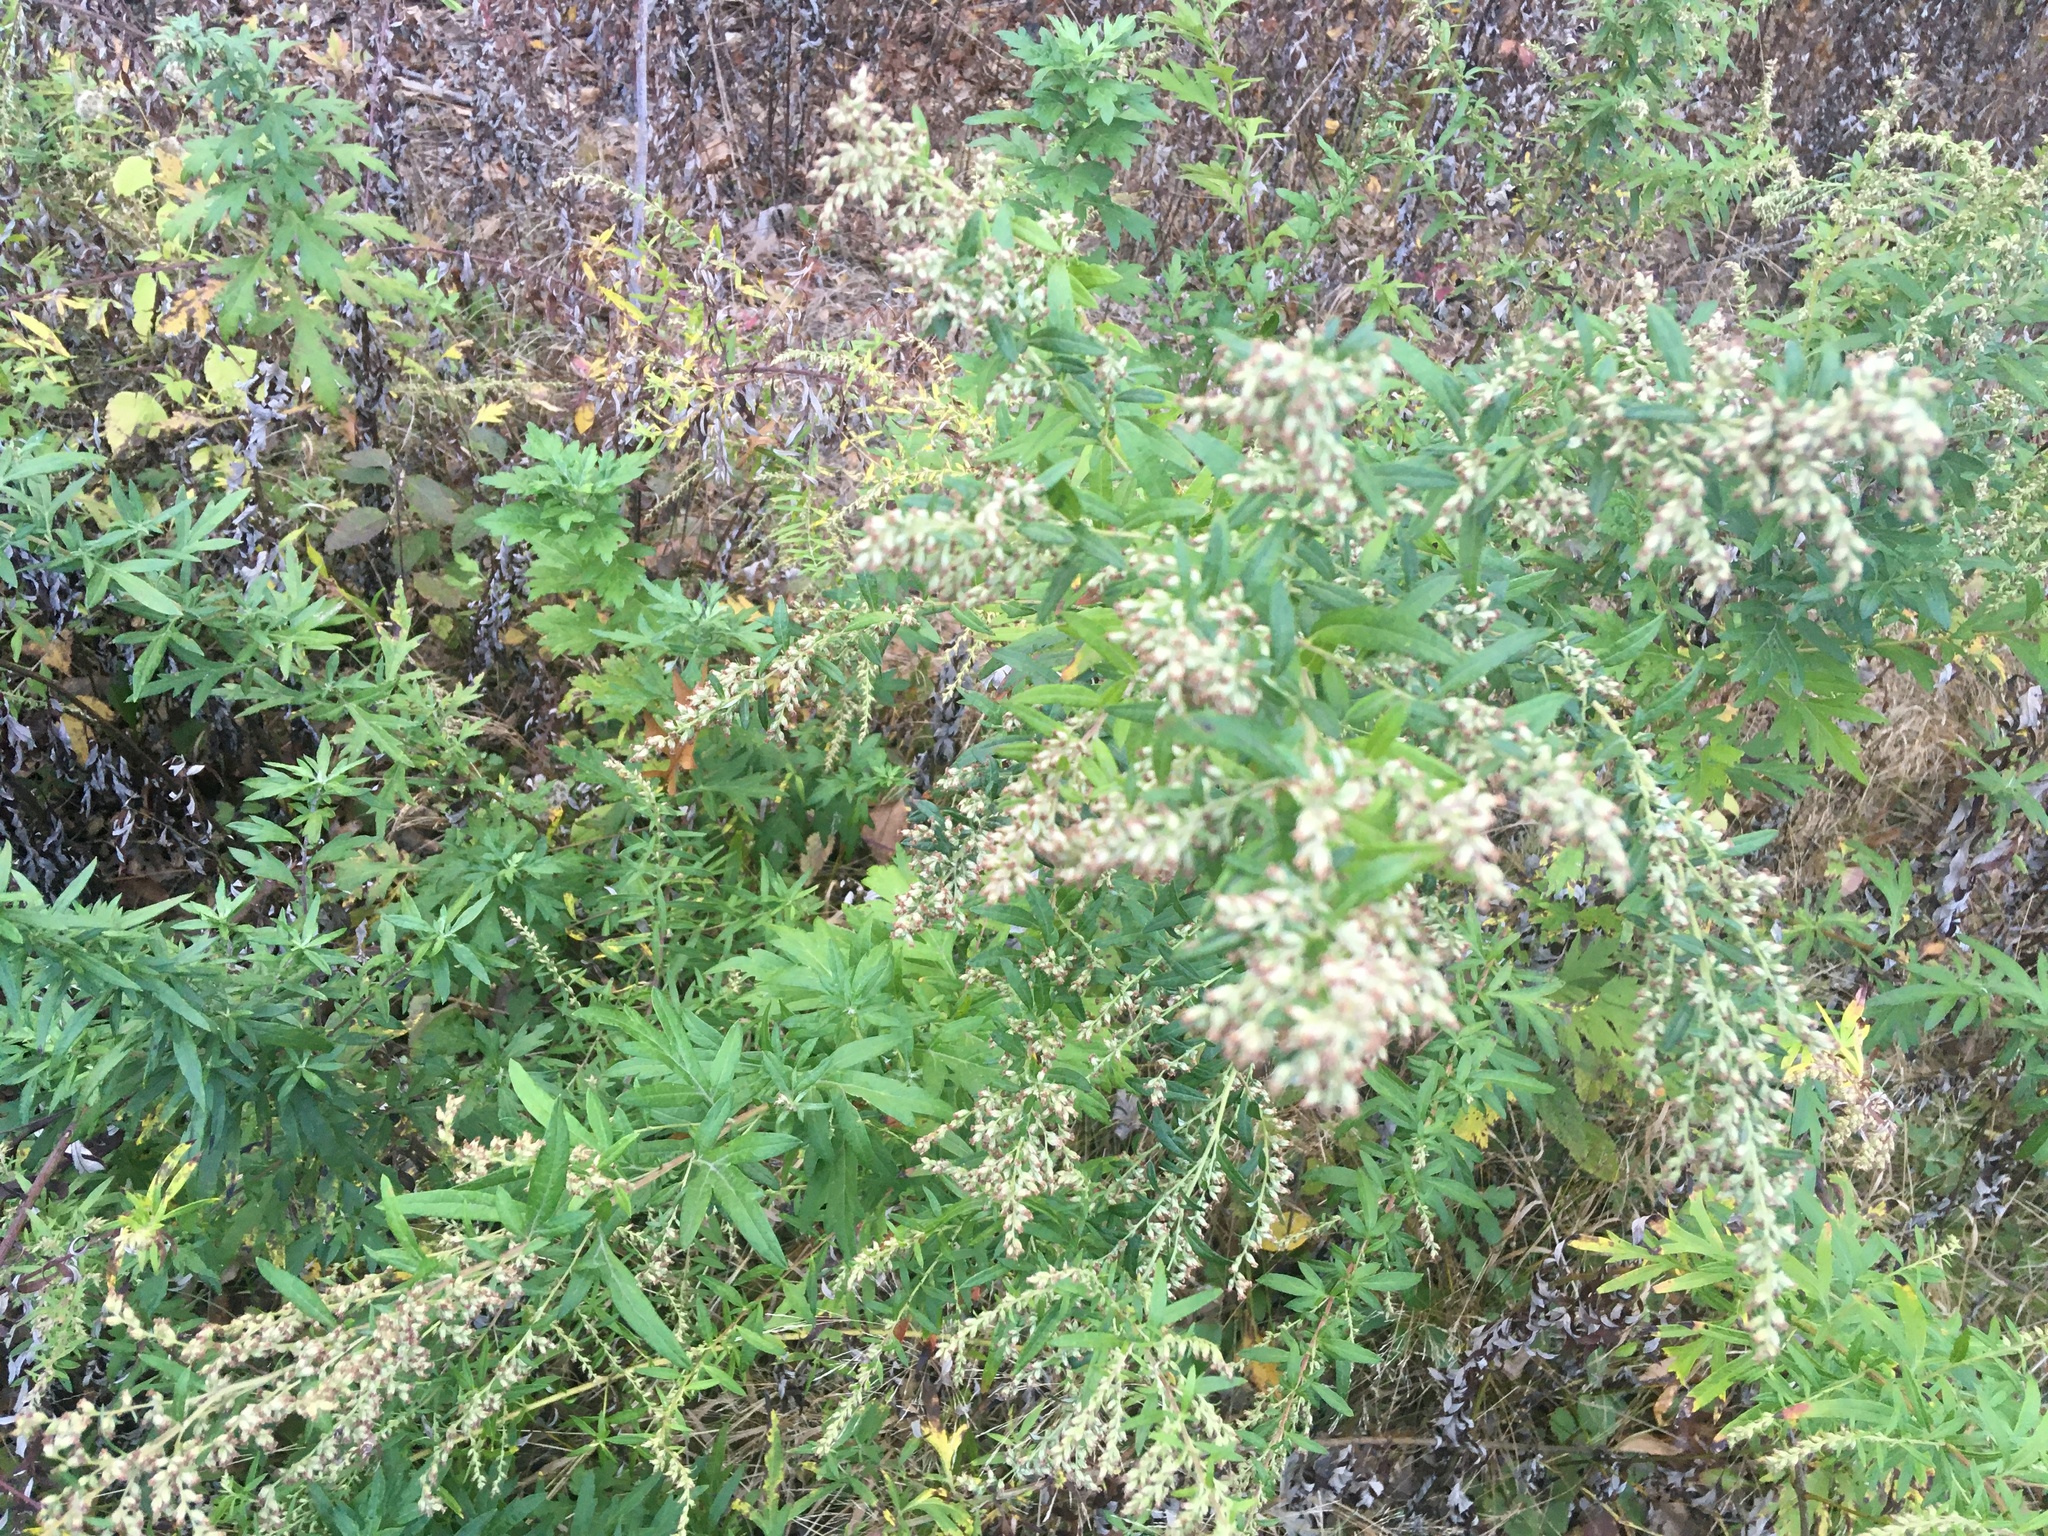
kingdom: Plantae
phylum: Tracheophyta
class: Magnoliopsida
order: Asterales
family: Asteraceae
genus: Artemisia
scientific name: Artemisia vulgaris
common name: Mugwort
